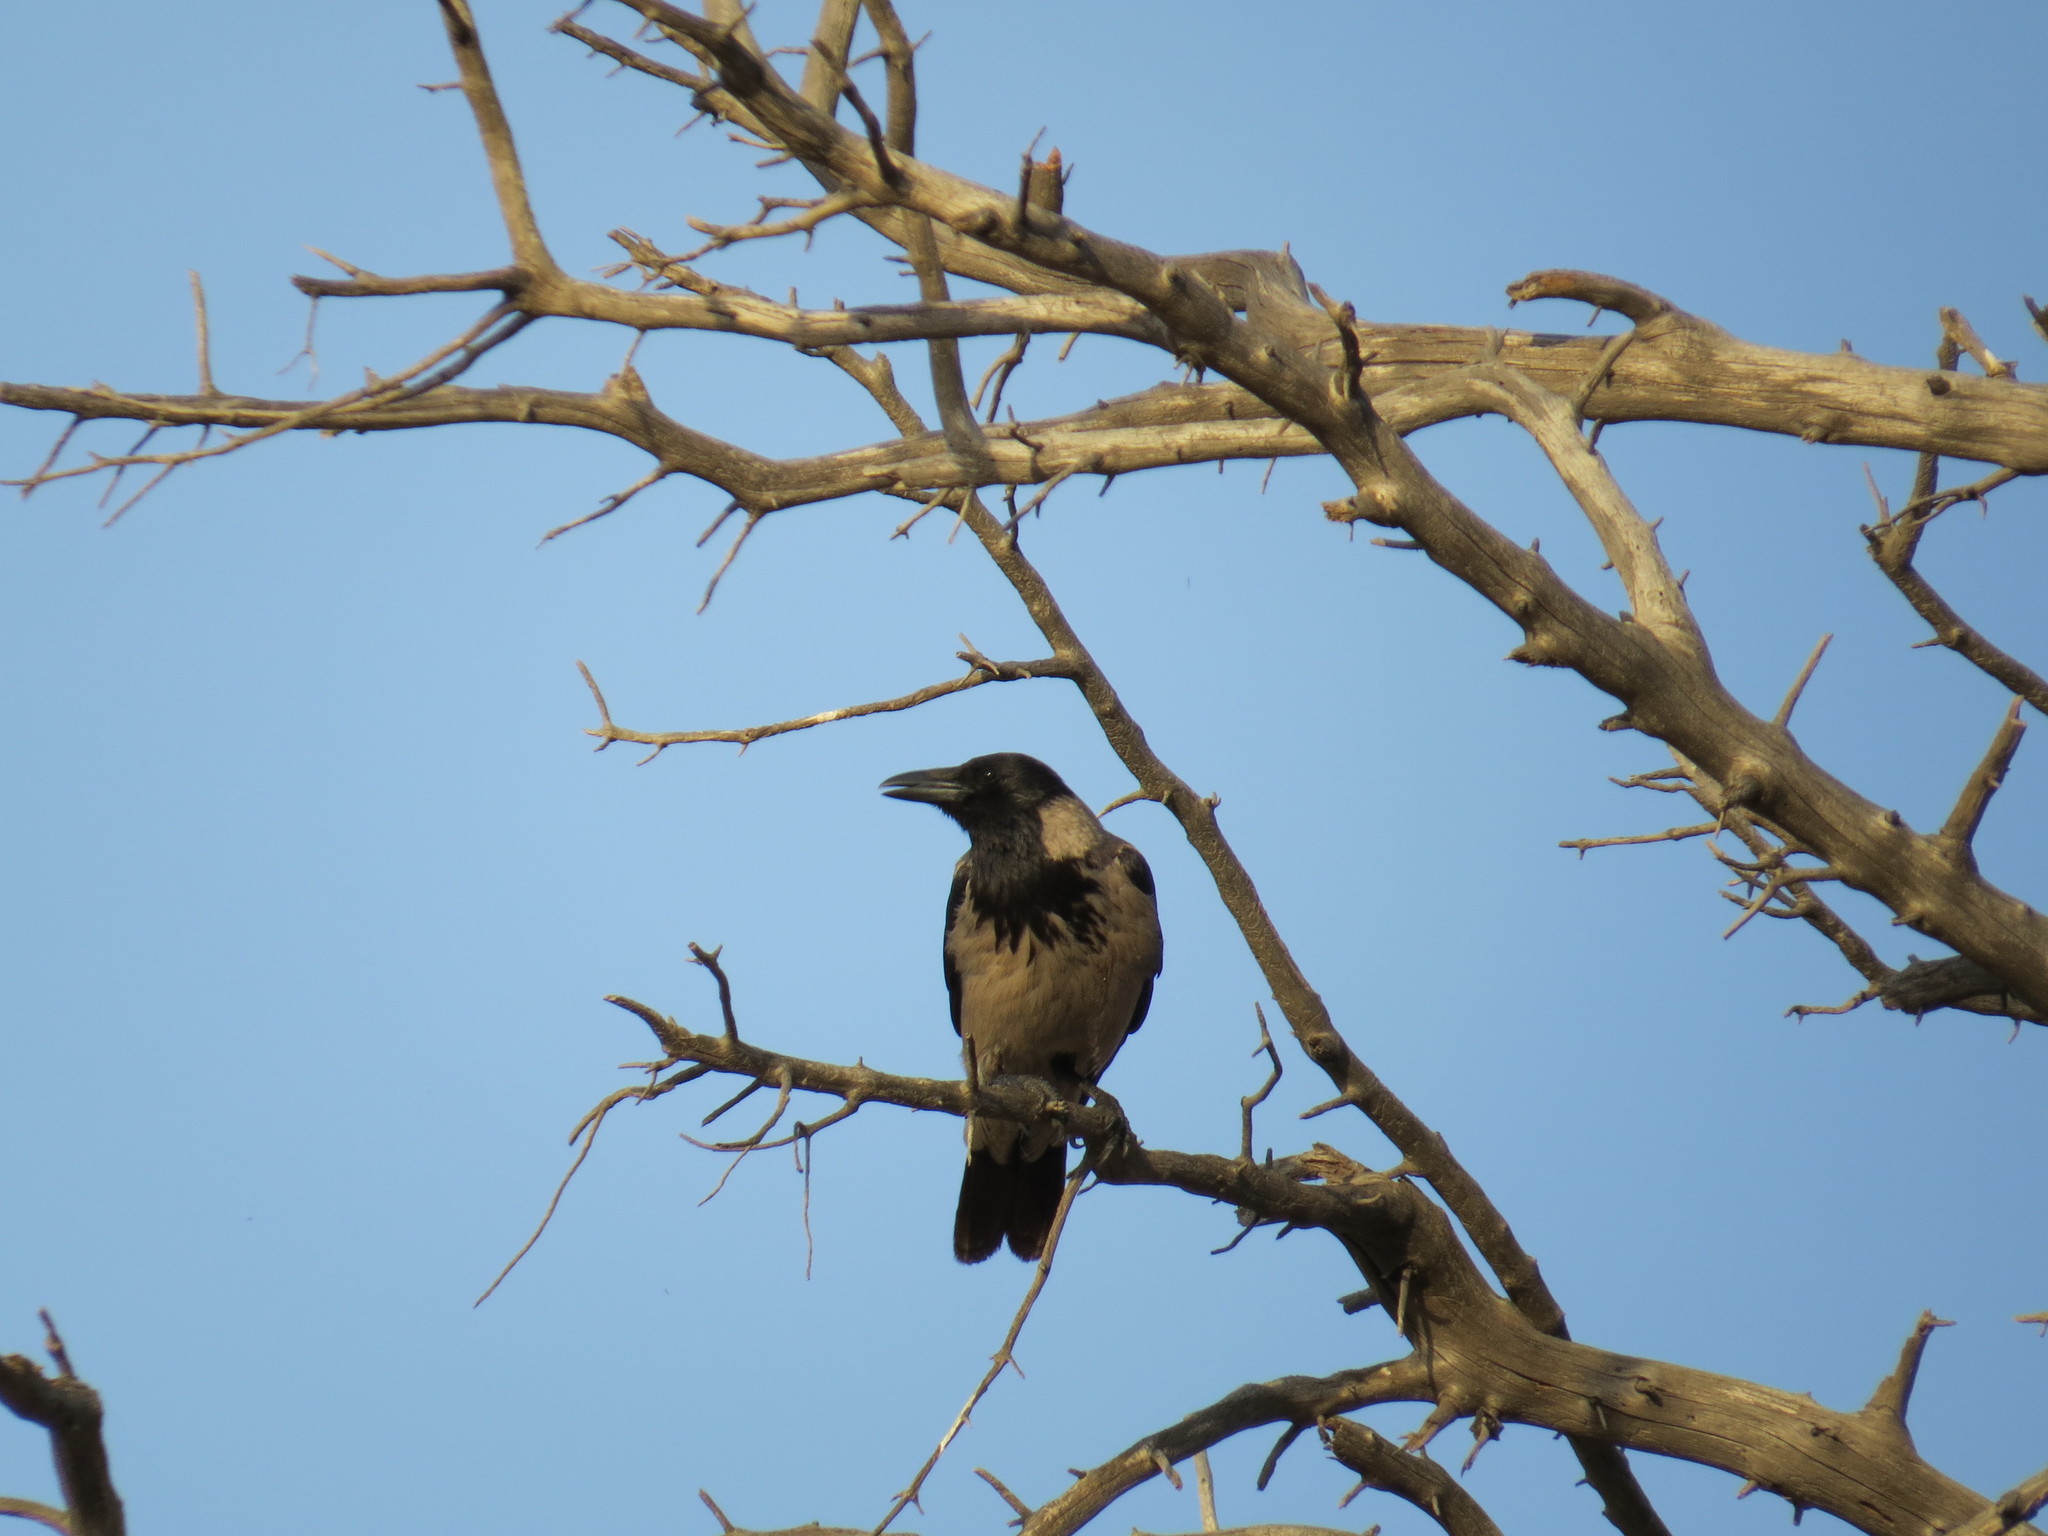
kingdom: Animalia
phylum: Chordata
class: Aves
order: Passeriformes
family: Corvidae
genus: Corvus
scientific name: Corvus cornix
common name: Hooded crow
